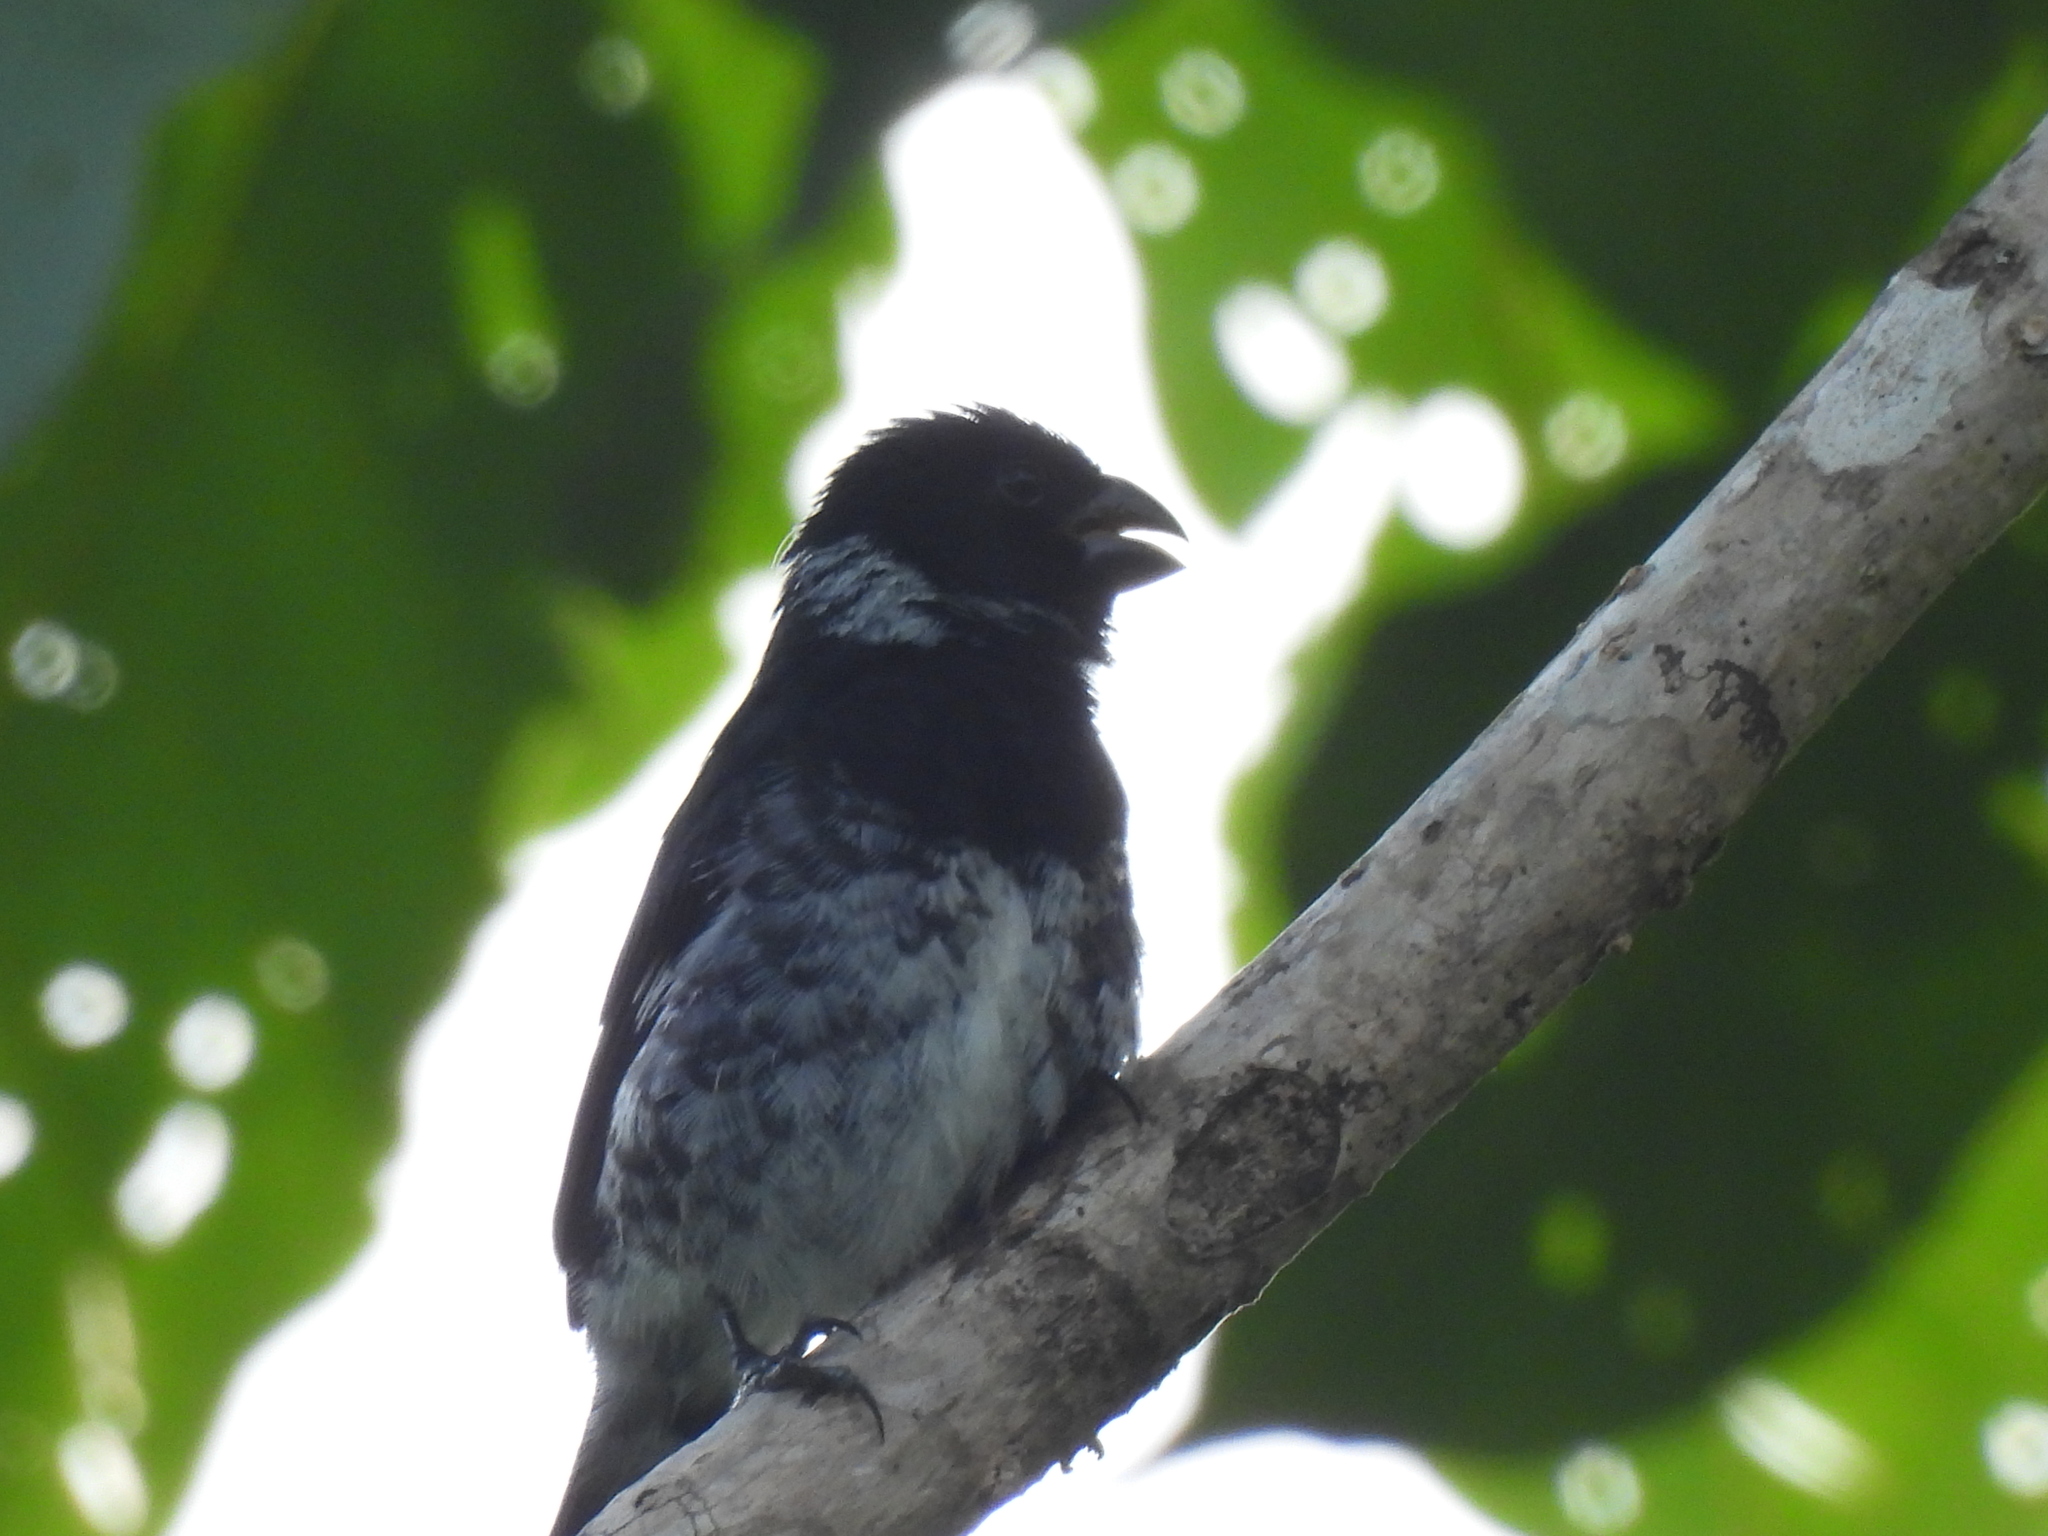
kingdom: Animalia
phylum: Chordata
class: Aves
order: Passeriformes
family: Thraupidae
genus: Sporophila
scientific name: Sporophila corvina
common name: Variable seedeater
